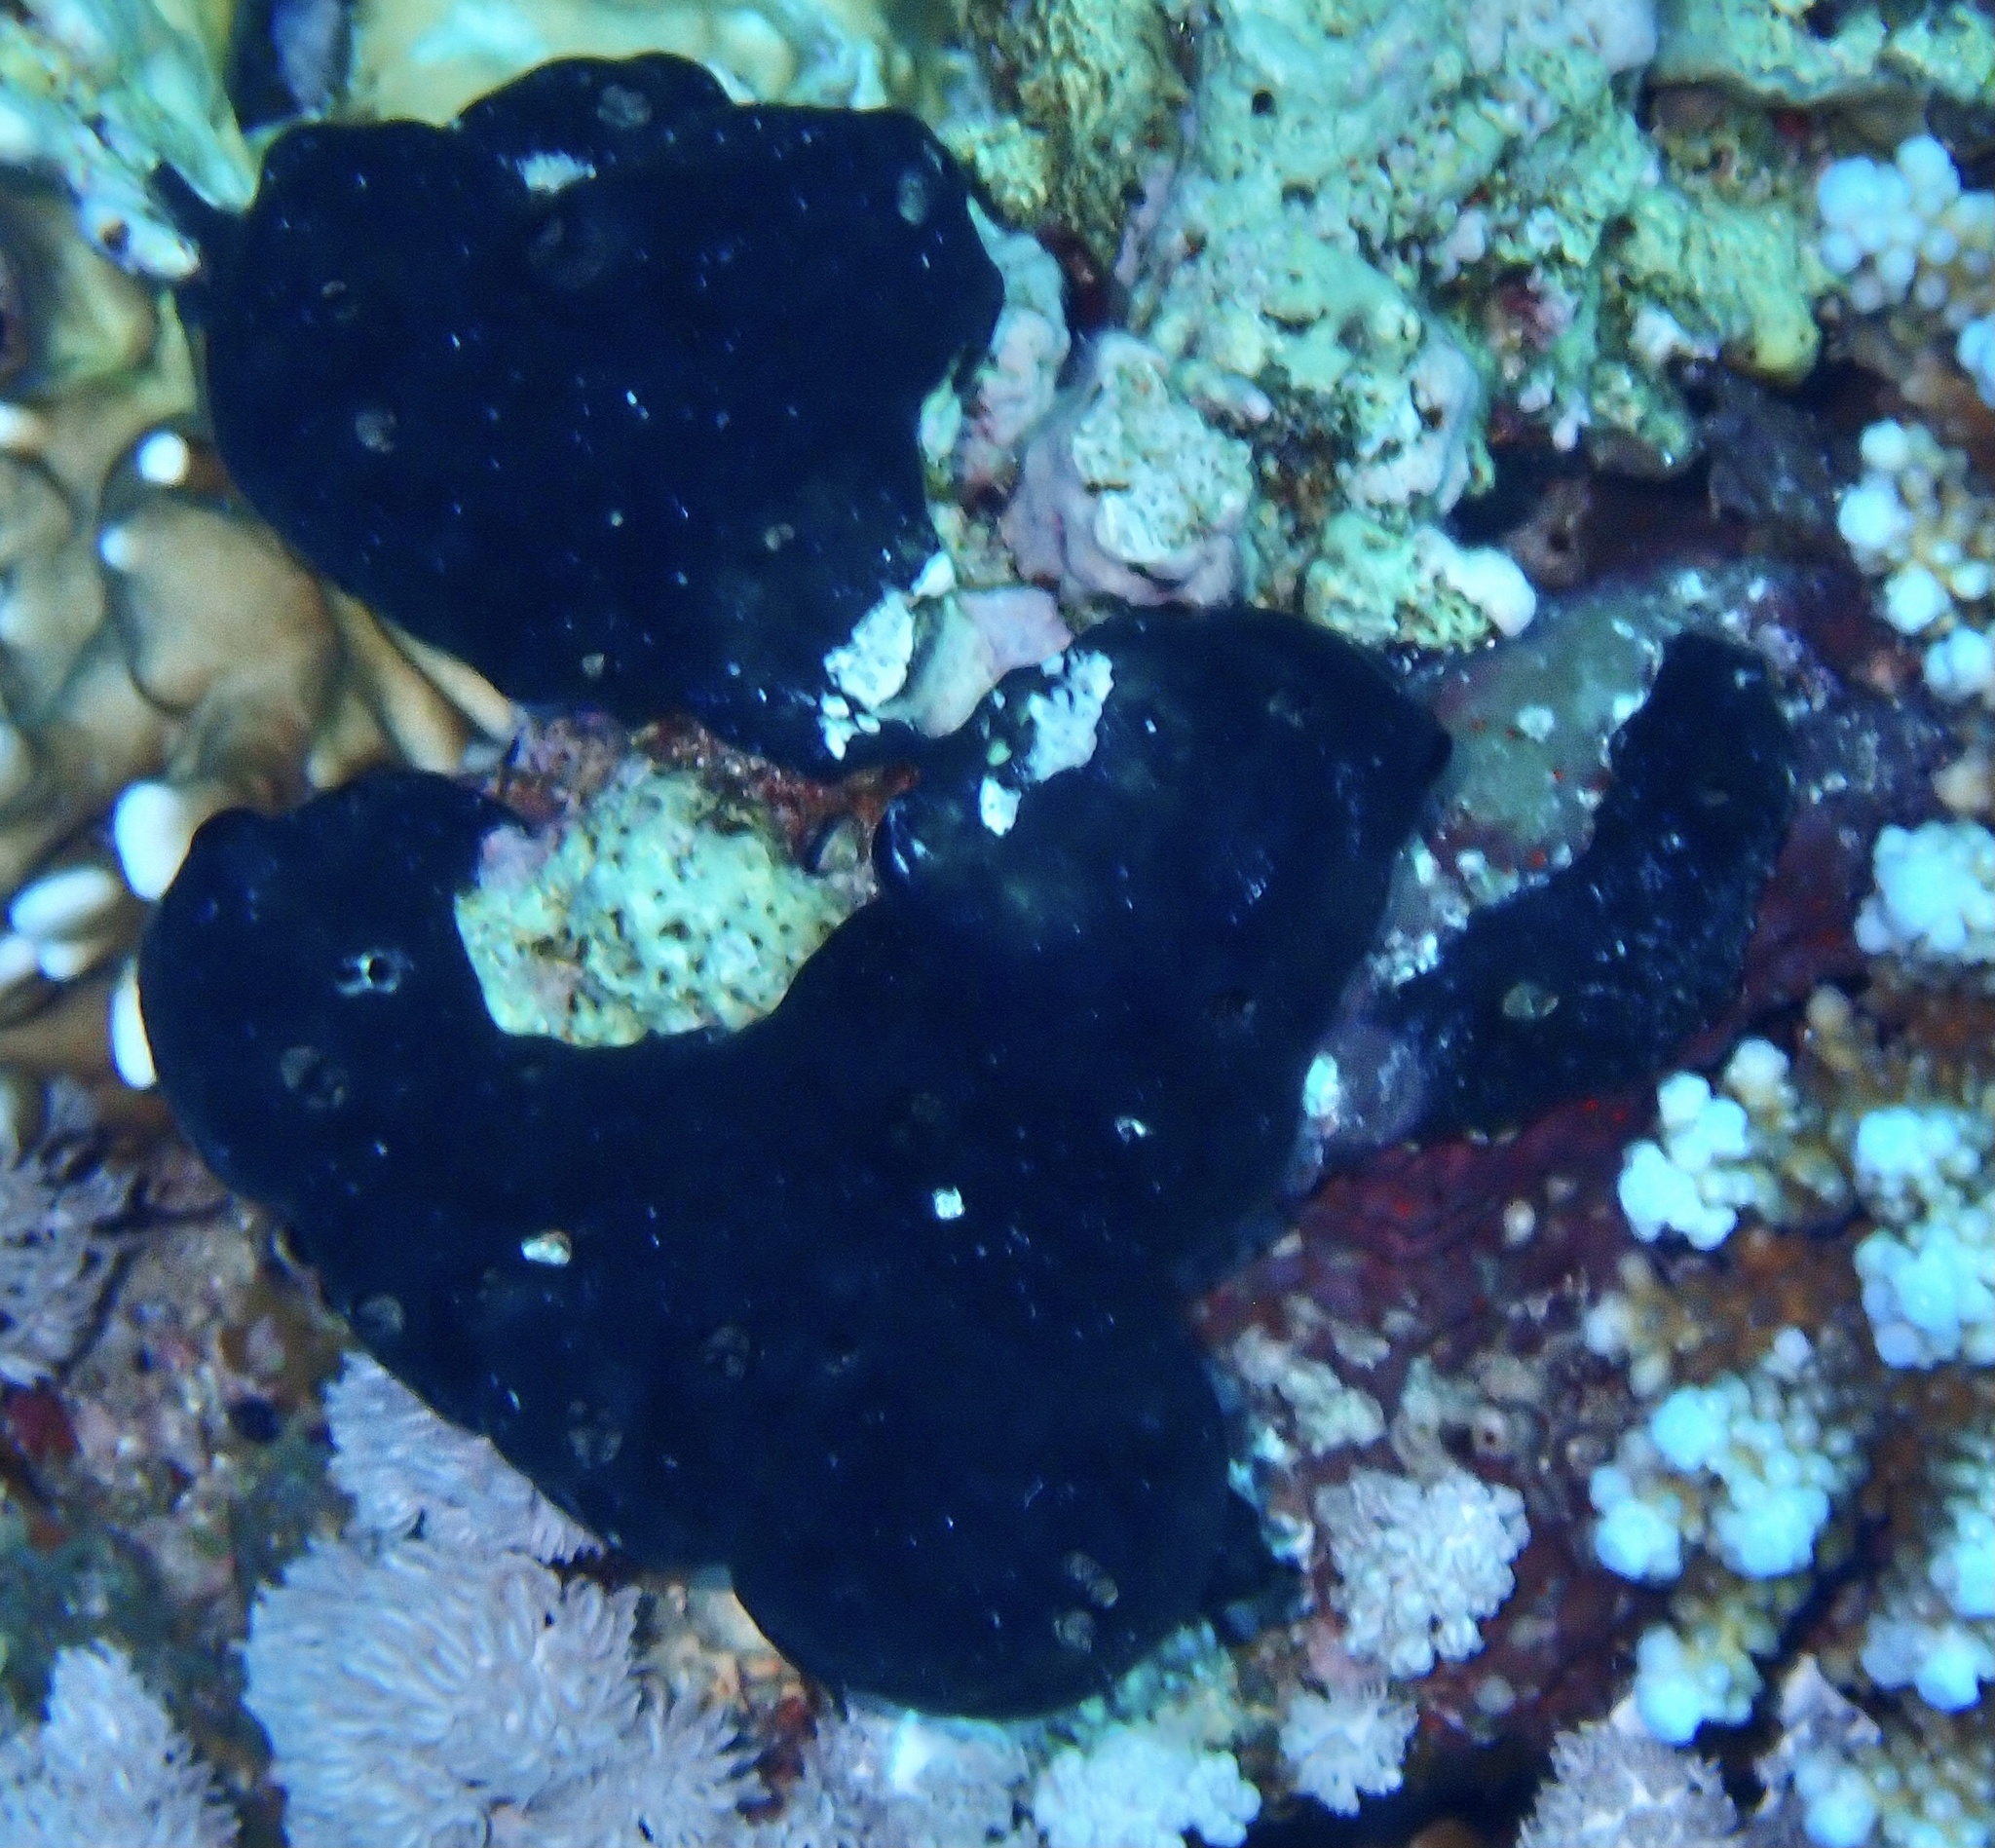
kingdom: Animalia
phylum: Porifera
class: Demospongiae
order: Poecilosclerida
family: Hymedesmiidae
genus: Hemimycale
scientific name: Hemimycale arabica
